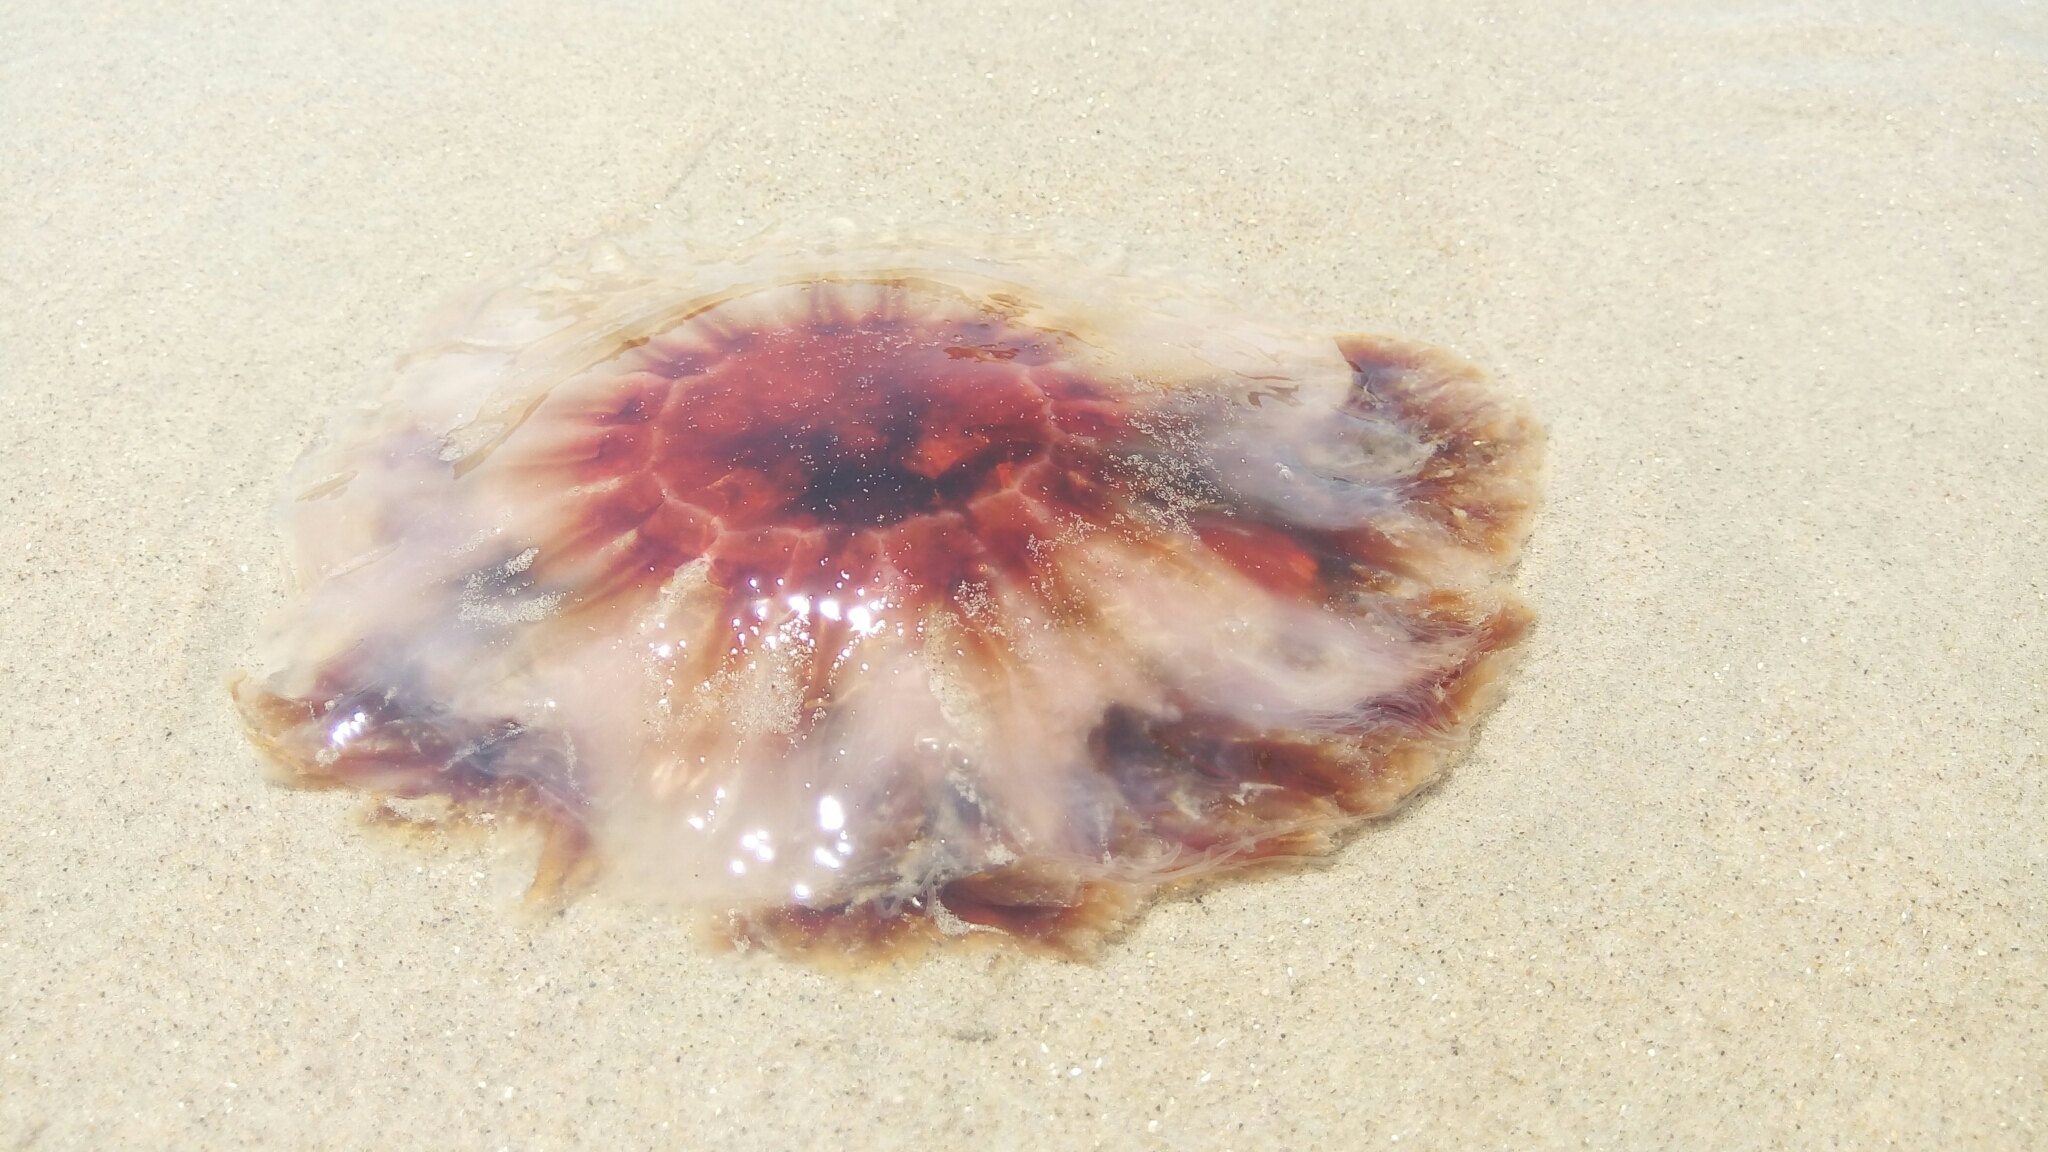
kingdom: Animalia
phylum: Cnidaria
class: Scyphozoa
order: Semaeostomeae
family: Cyaneidae
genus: Cyanea
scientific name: Cyanea versicolor
